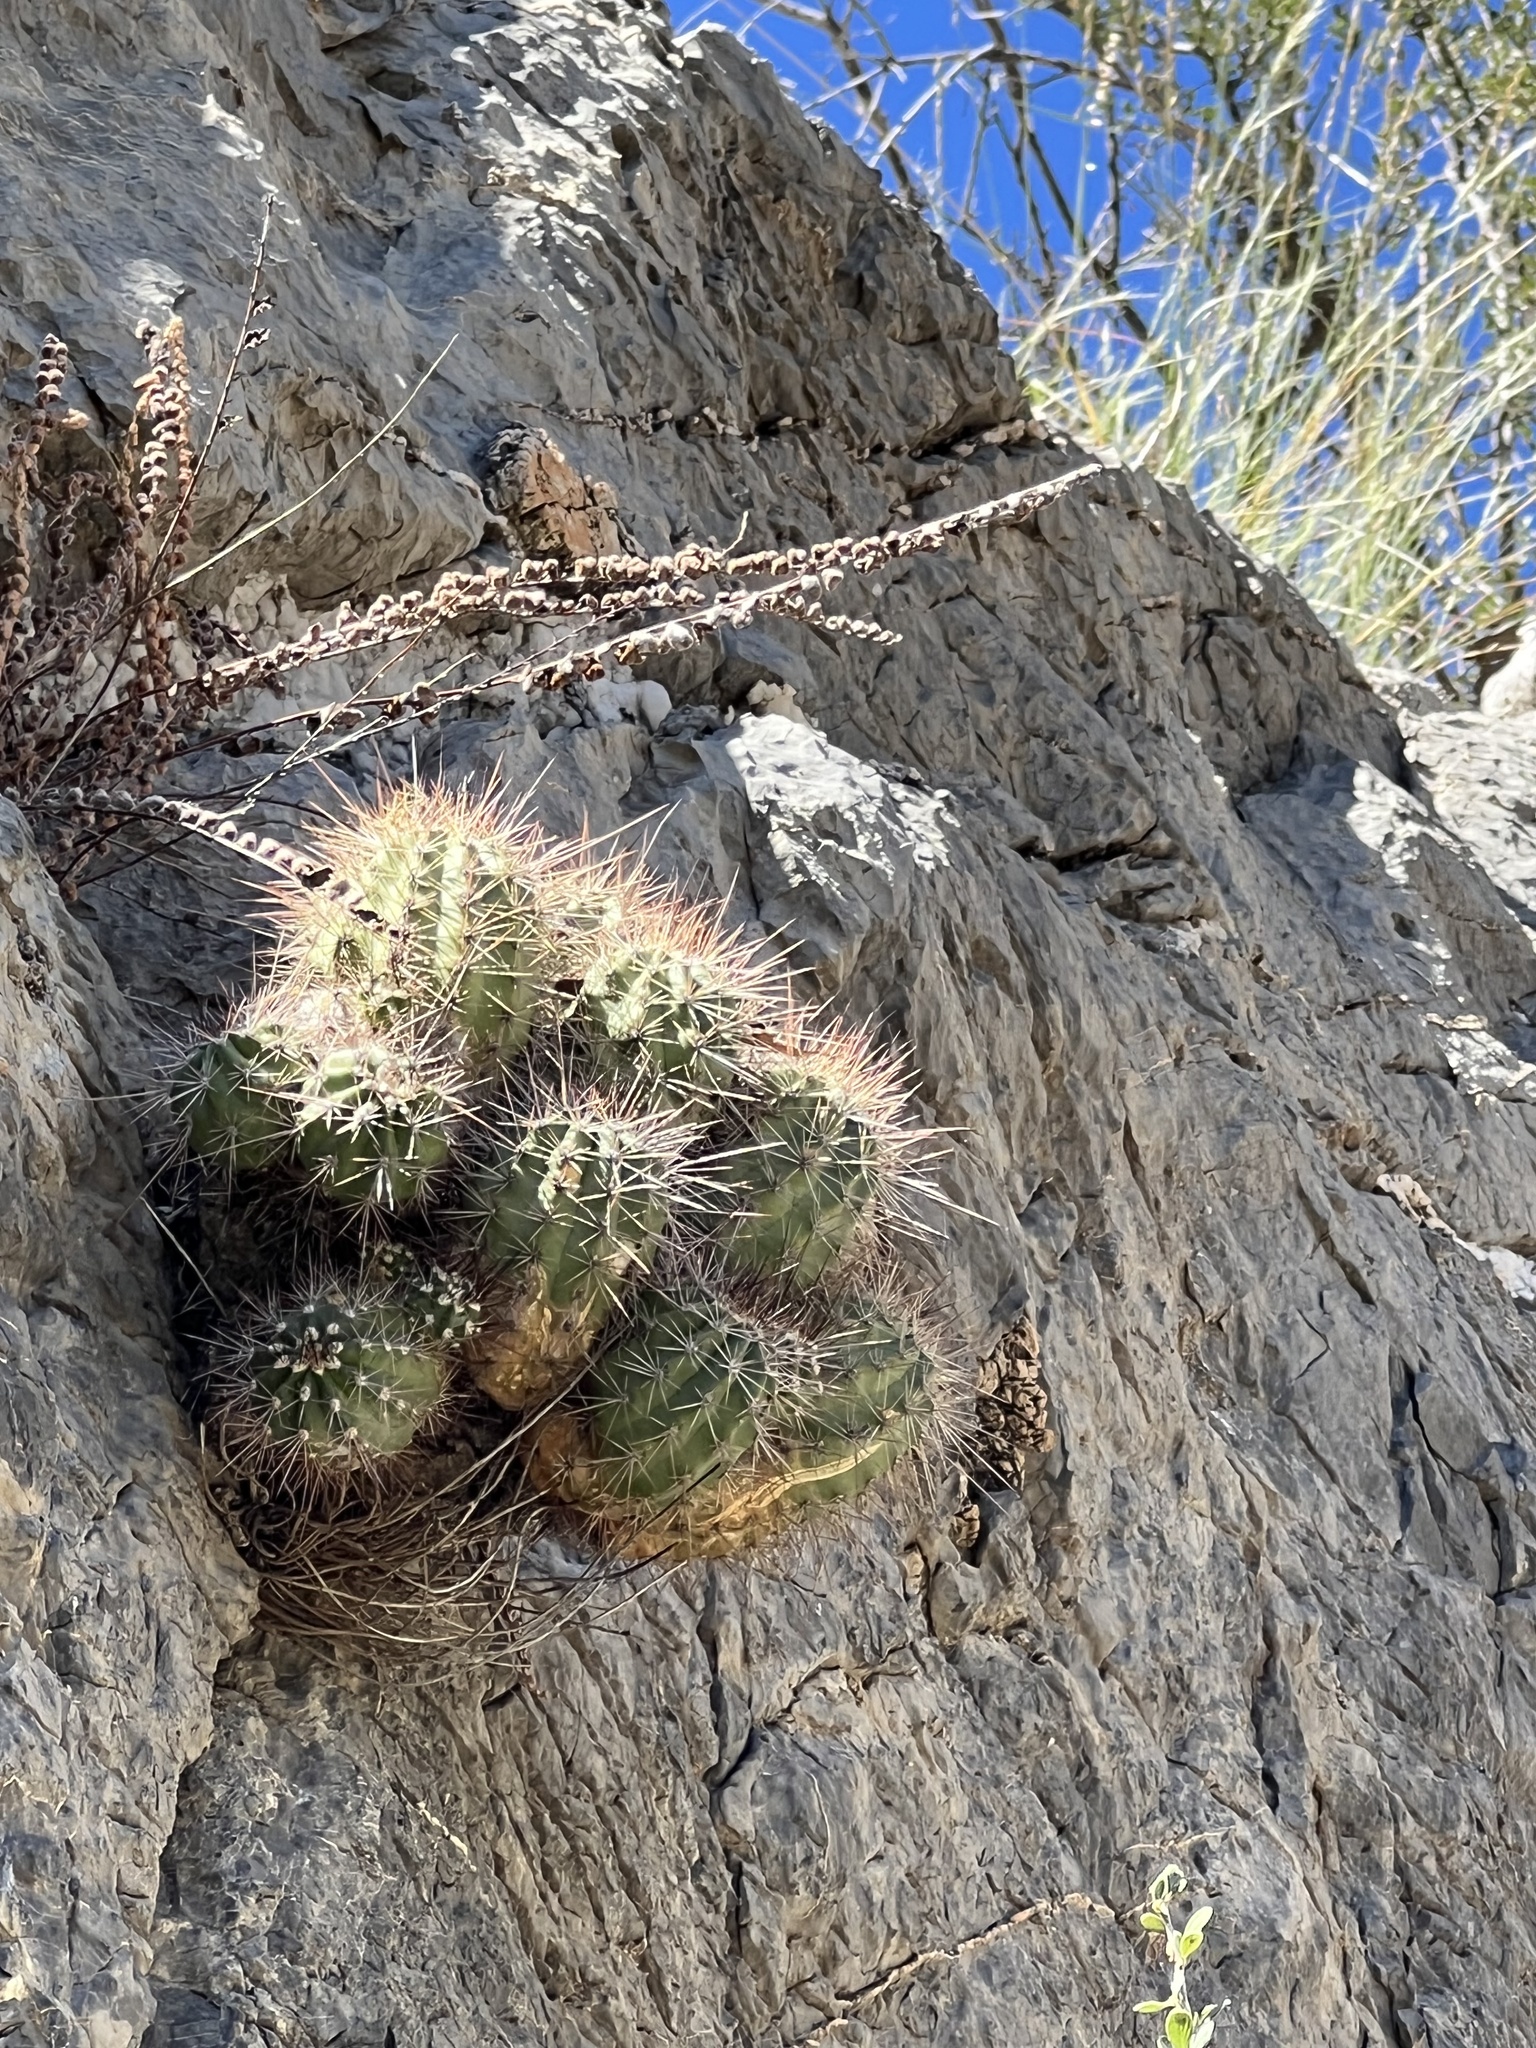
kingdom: Plantae
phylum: Tracheophyta
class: Magnoliopsida
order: Caryophyllales
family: Cactaceae
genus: Echinocereus
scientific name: Echinocereus coccineus
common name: Scarlet hedgehog cactus
